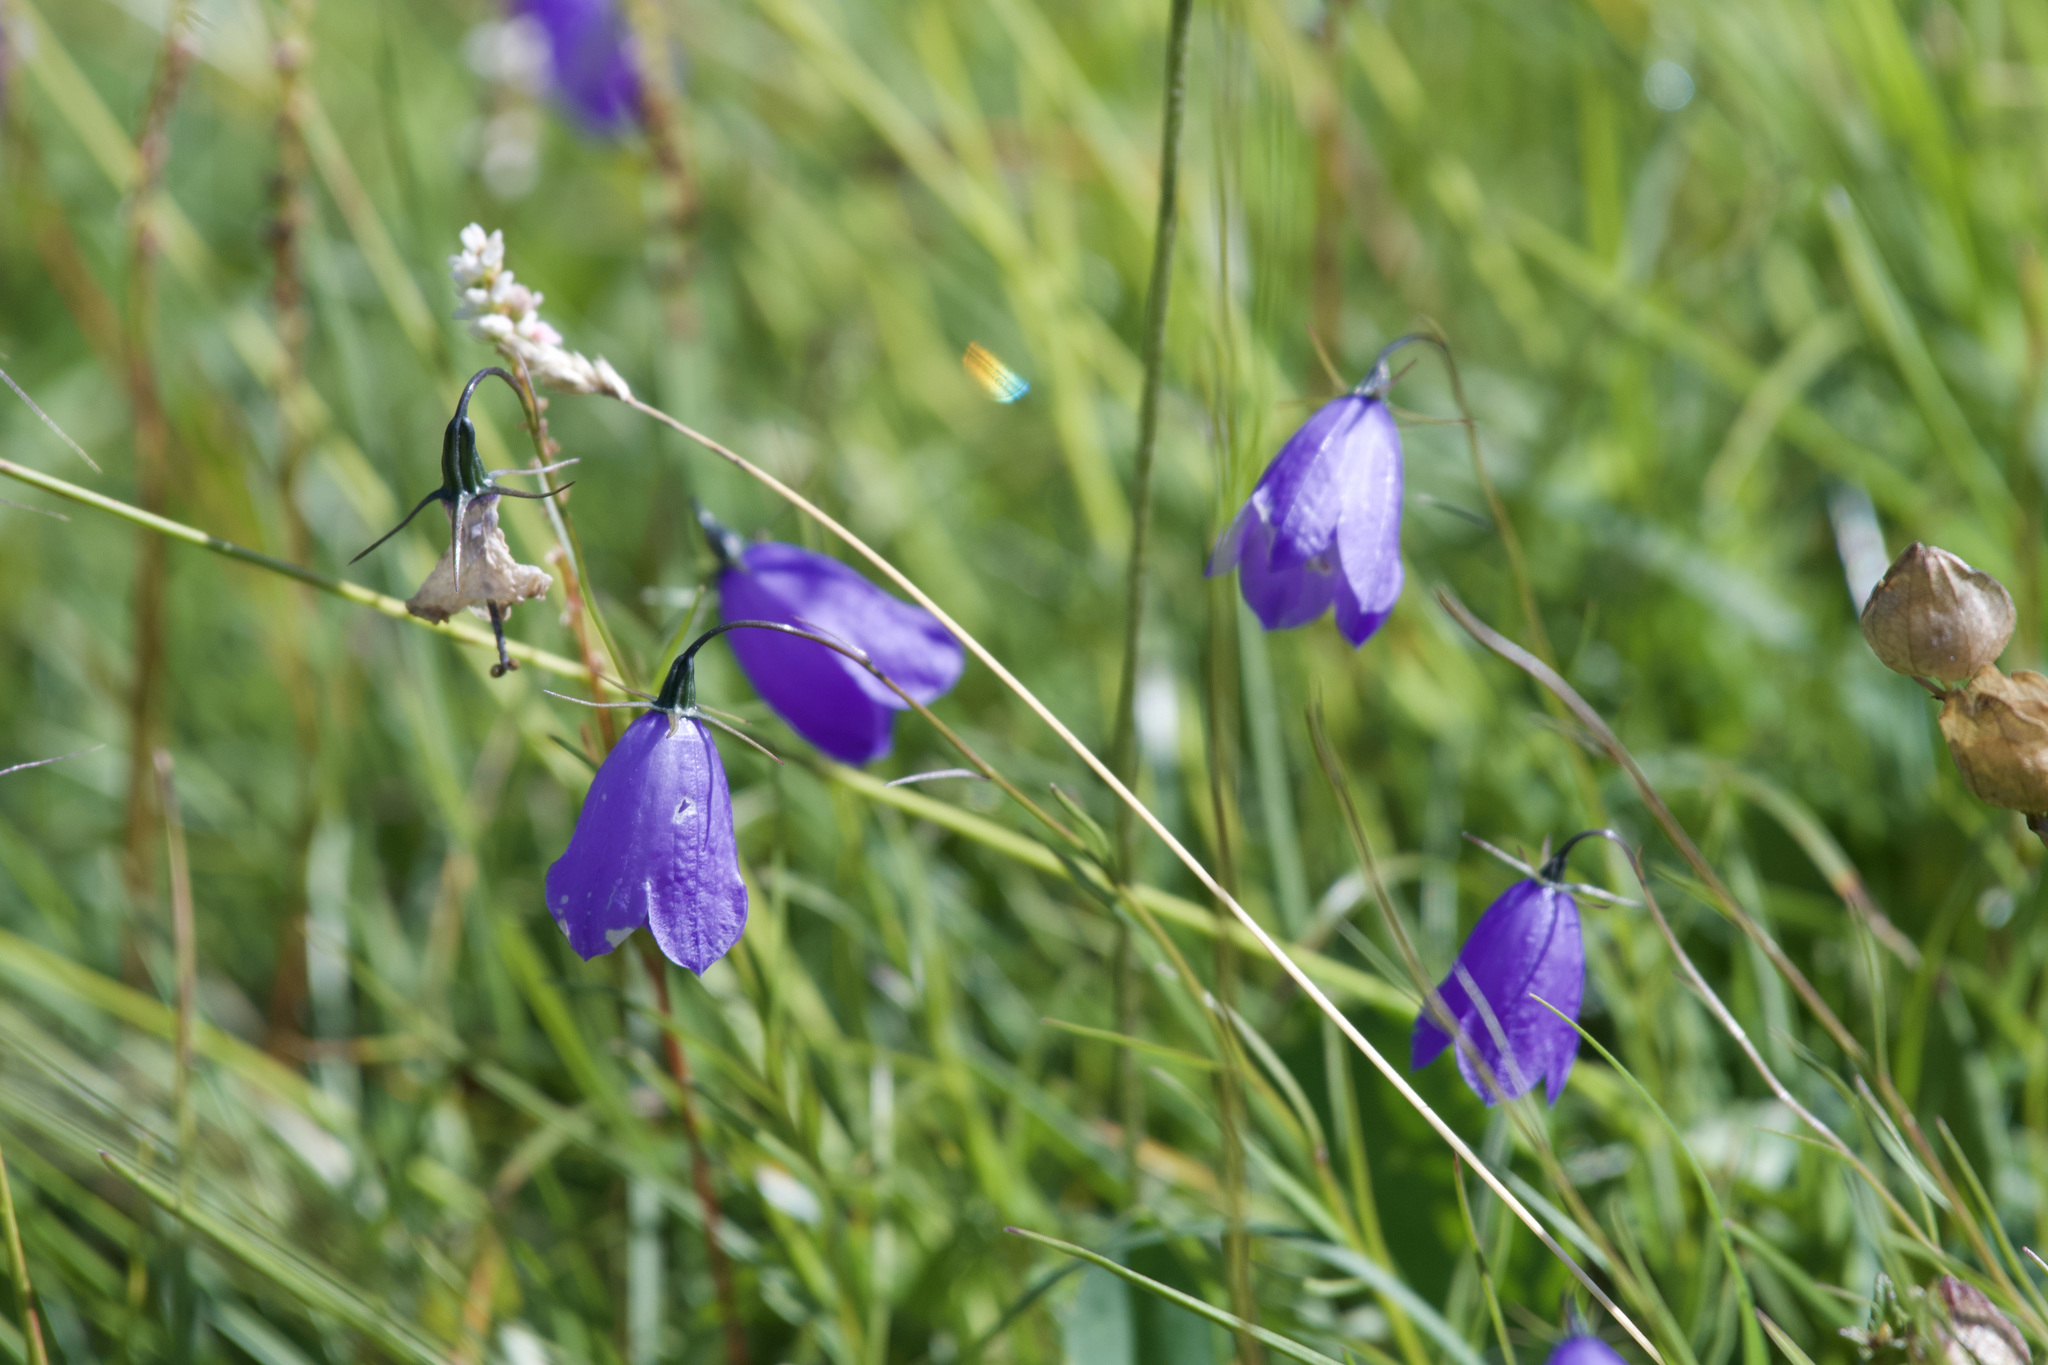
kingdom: Plantae
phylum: Tracheophyta
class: Magnoliopsida
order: Asterales
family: Campanulaceae
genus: Campanula
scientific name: Campanula scheuchzeri
